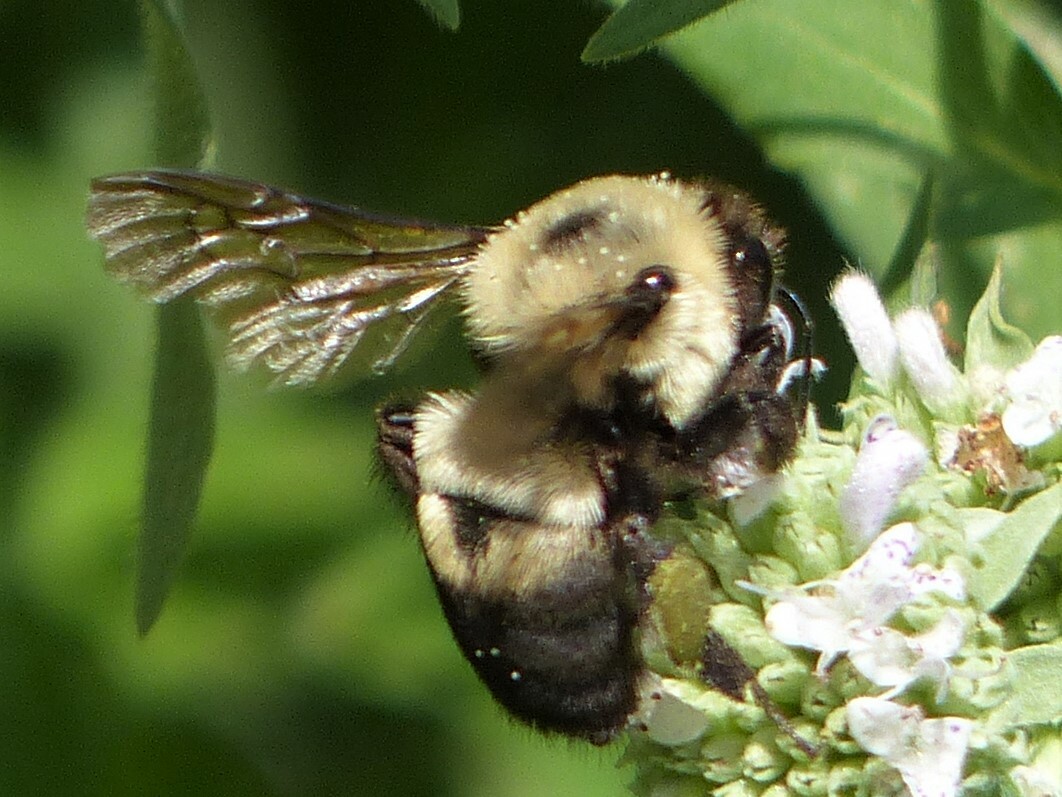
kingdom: Animalia
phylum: Arthropoda
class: Insecta
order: Hymenoptera
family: Apidae
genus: Bombus
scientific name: Bombus griseocollis
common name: Brown-belted bumble bee
